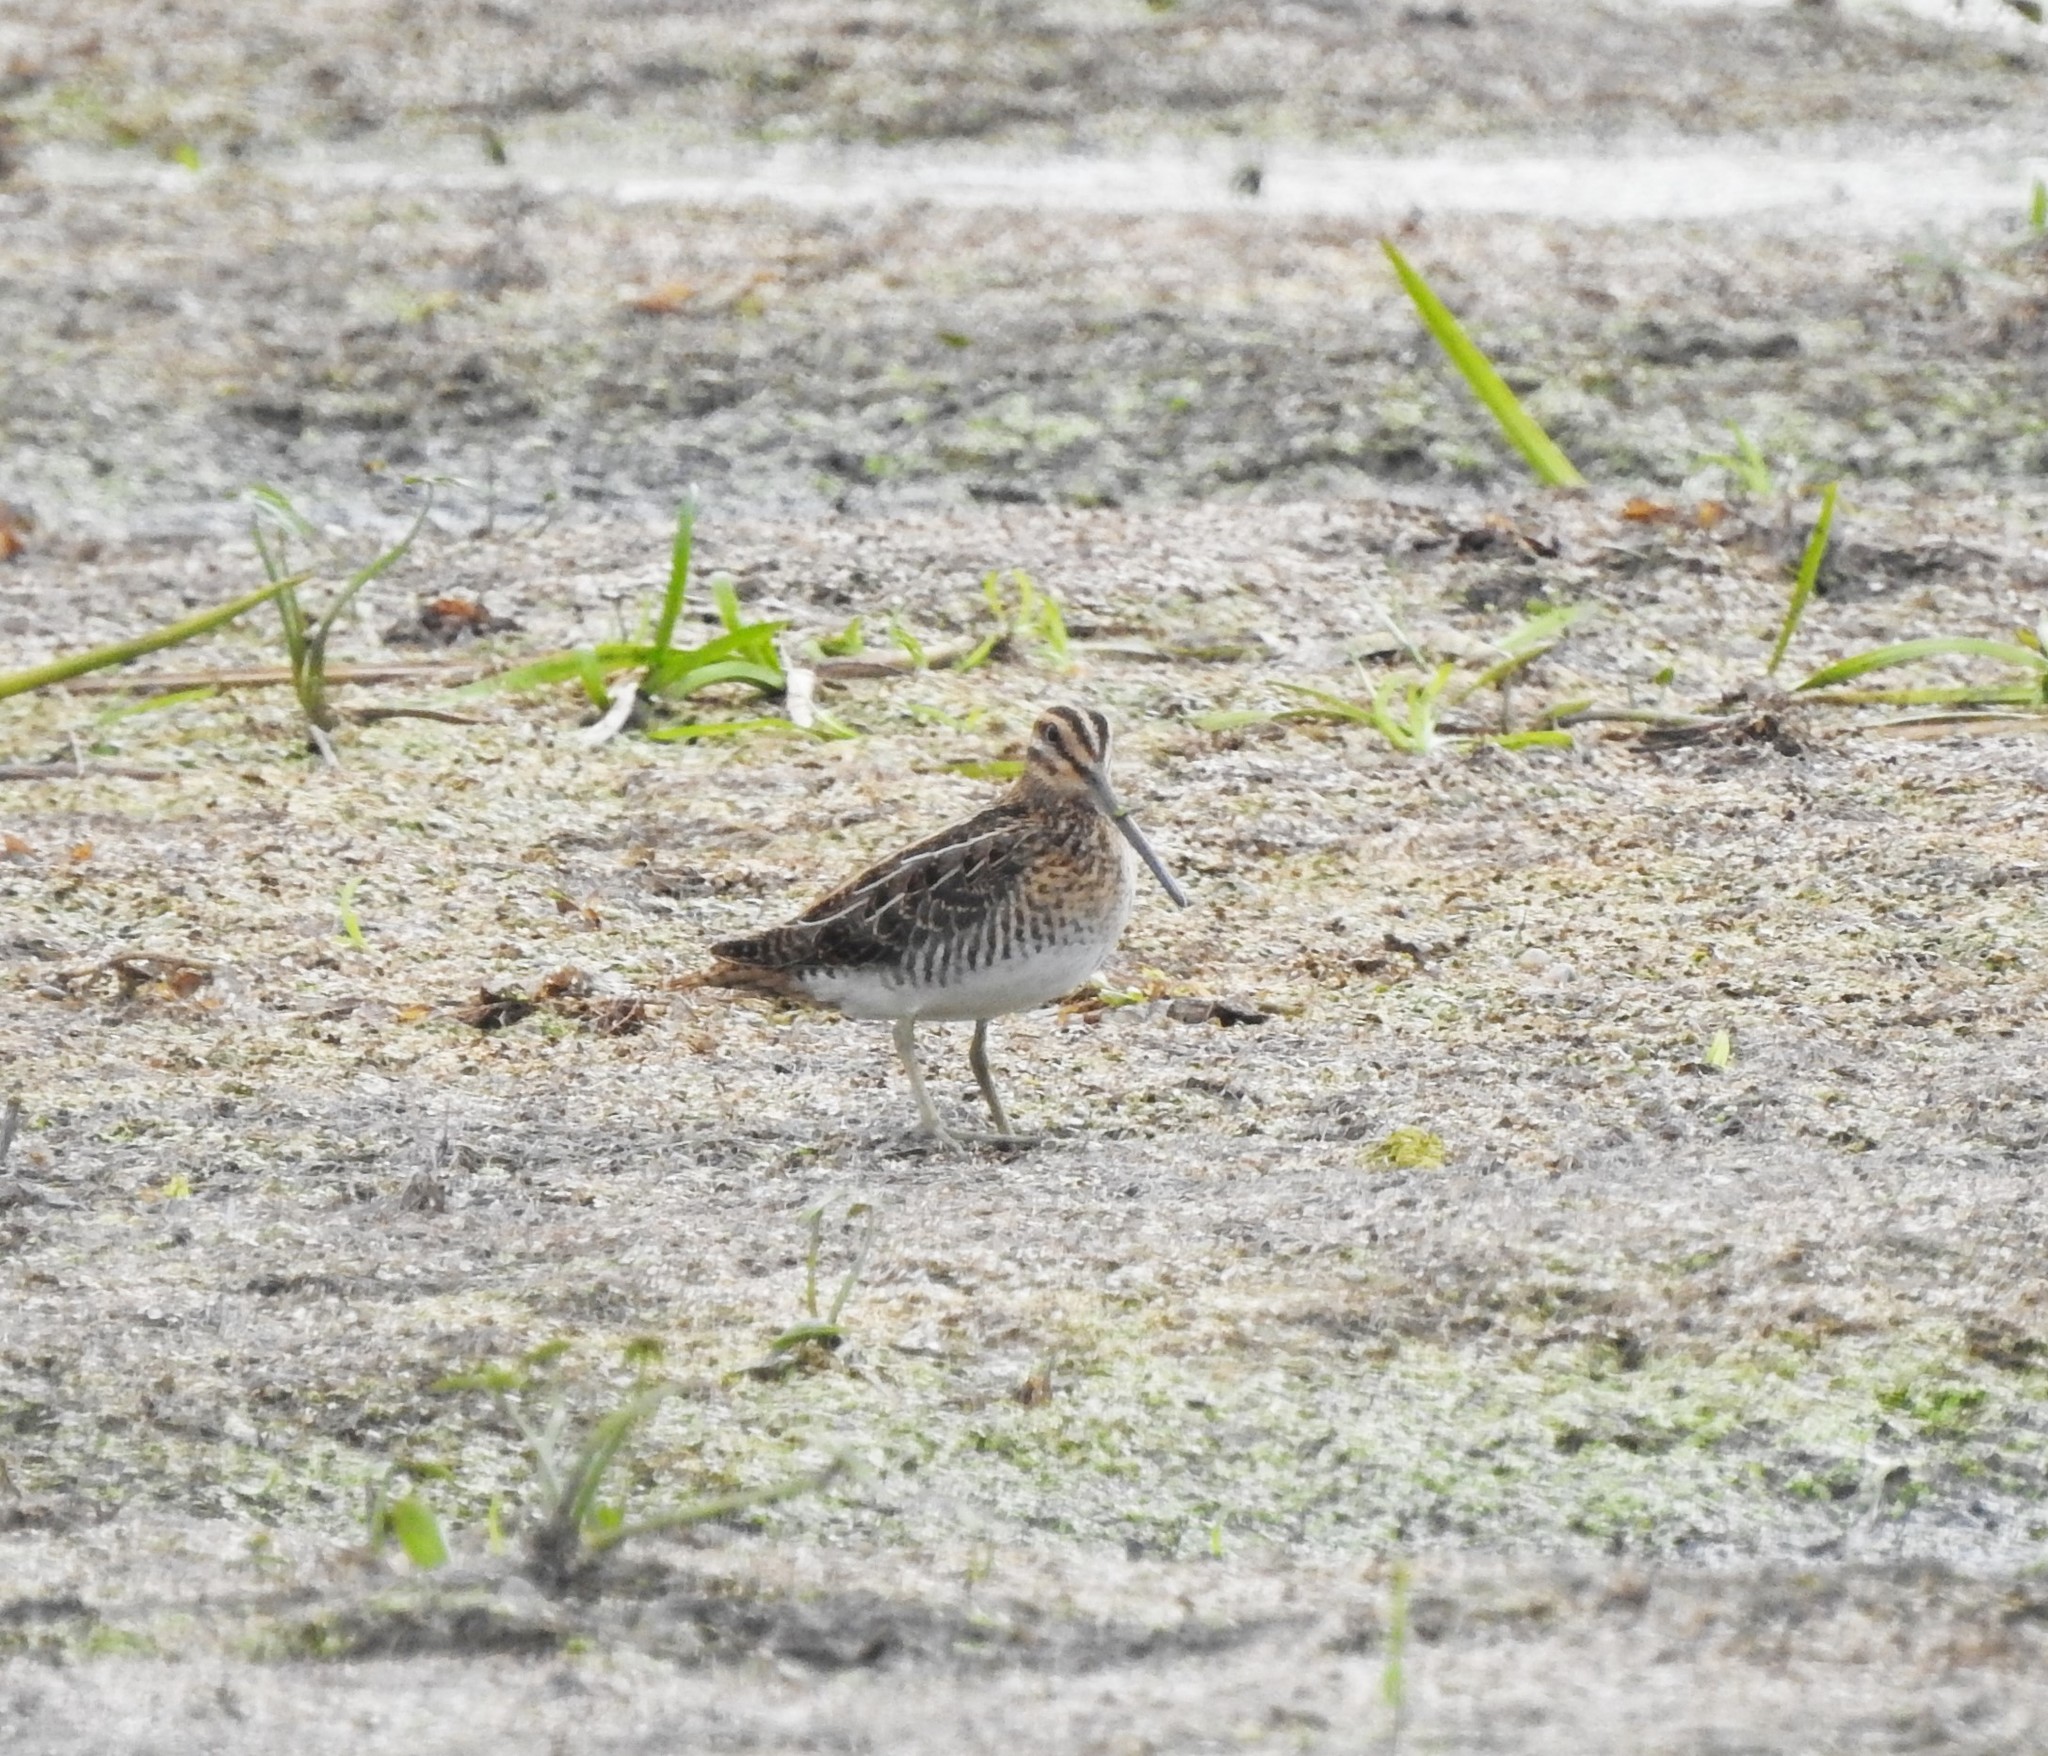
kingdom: Animalia
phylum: Chordata
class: Aves
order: Charadriiformes
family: Scolopacidae
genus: Gallinago
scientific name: Gallinago gallinago
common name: Common snipe
